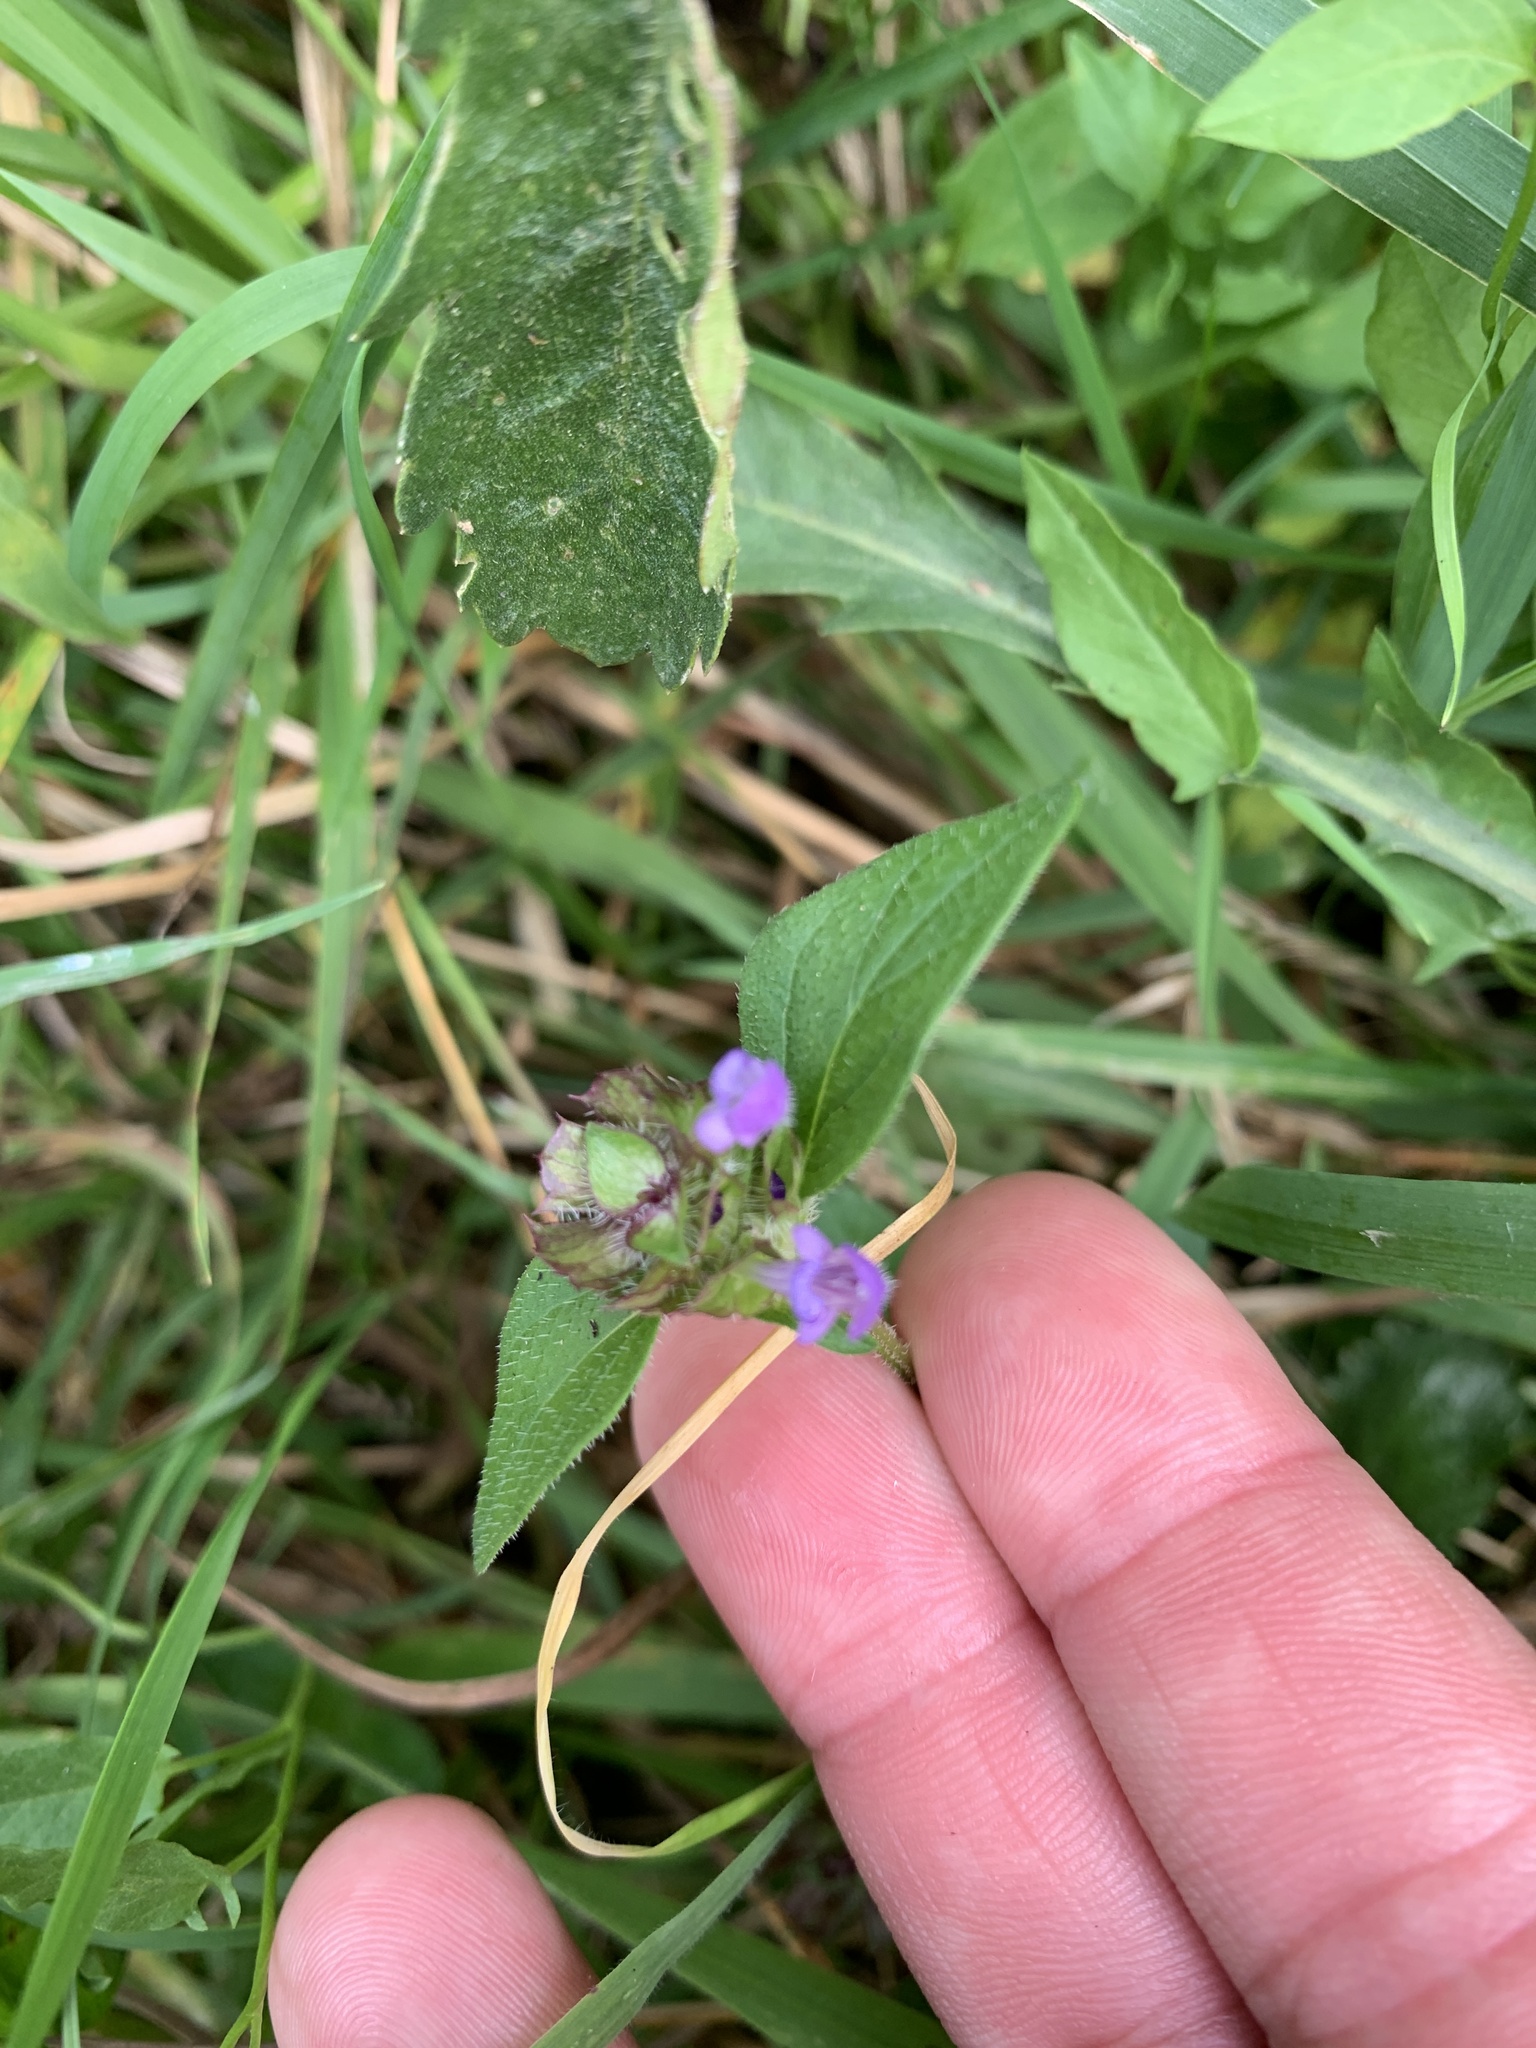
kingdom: Plantae
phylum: Tracheophyta
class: Magnoliopsida
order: Lamiales
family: Lamiaceae
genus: Prunella
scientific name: Prunella vulgaris
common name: Heal-all
